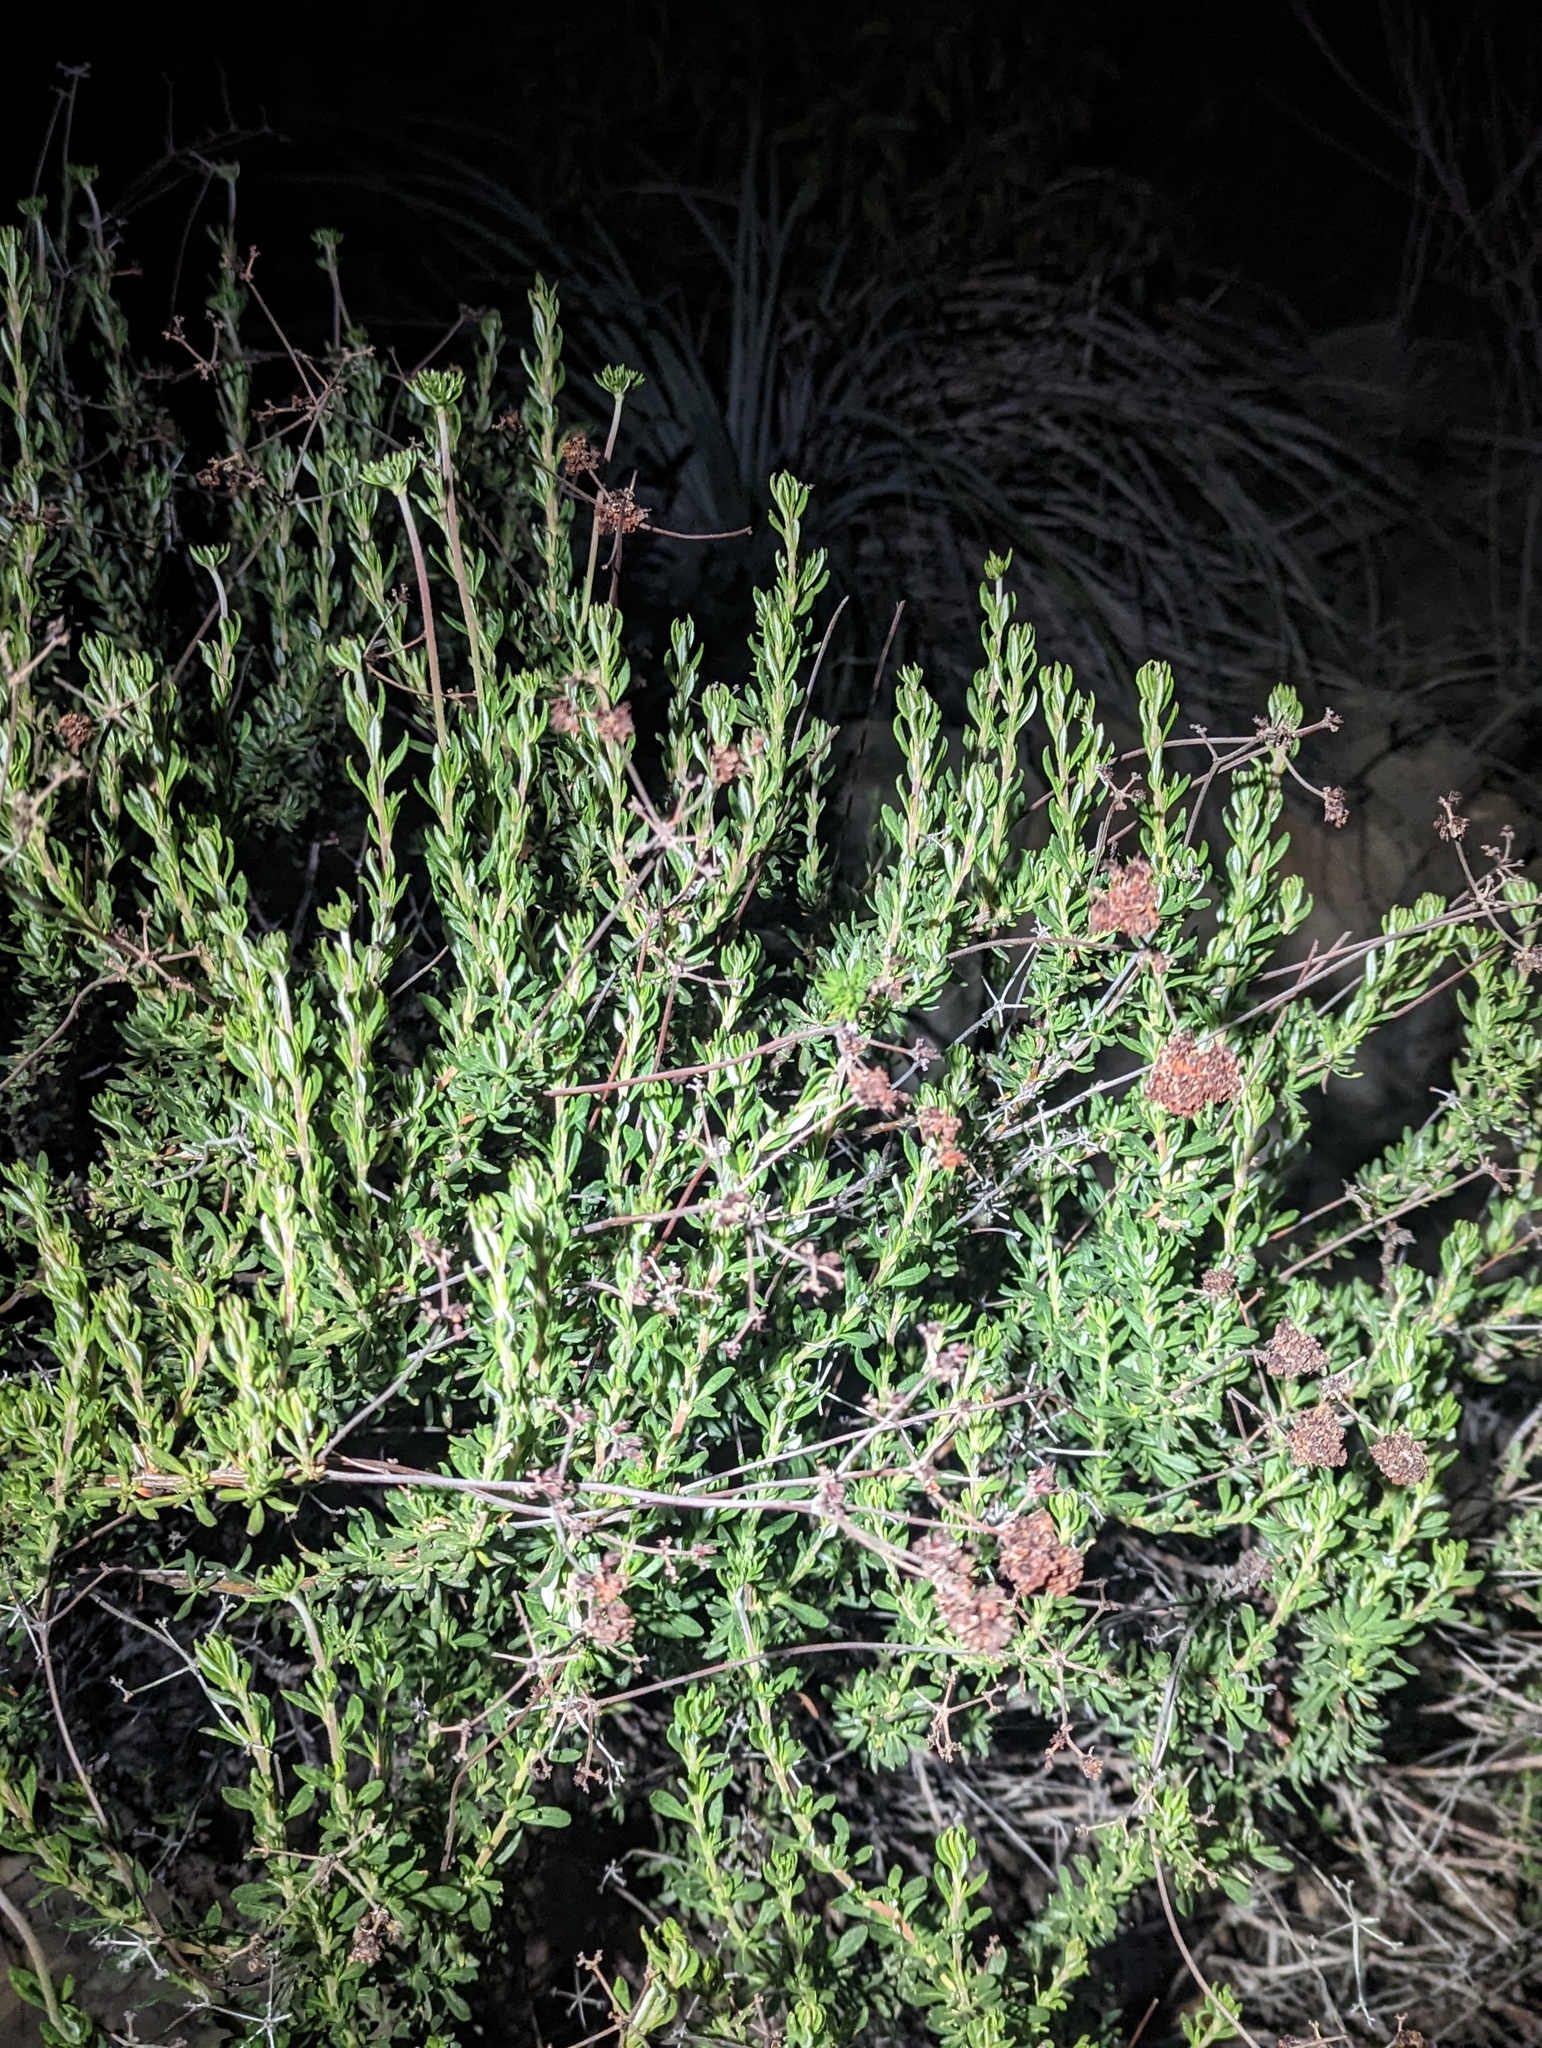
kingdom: Plantae
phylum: Tracheophyta
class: Magnoliopsida
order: Caryophyllales
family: Polygonaceae
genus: Eriogonum
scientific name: Eriogonum fasciculatum
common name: California wild buckwheat
